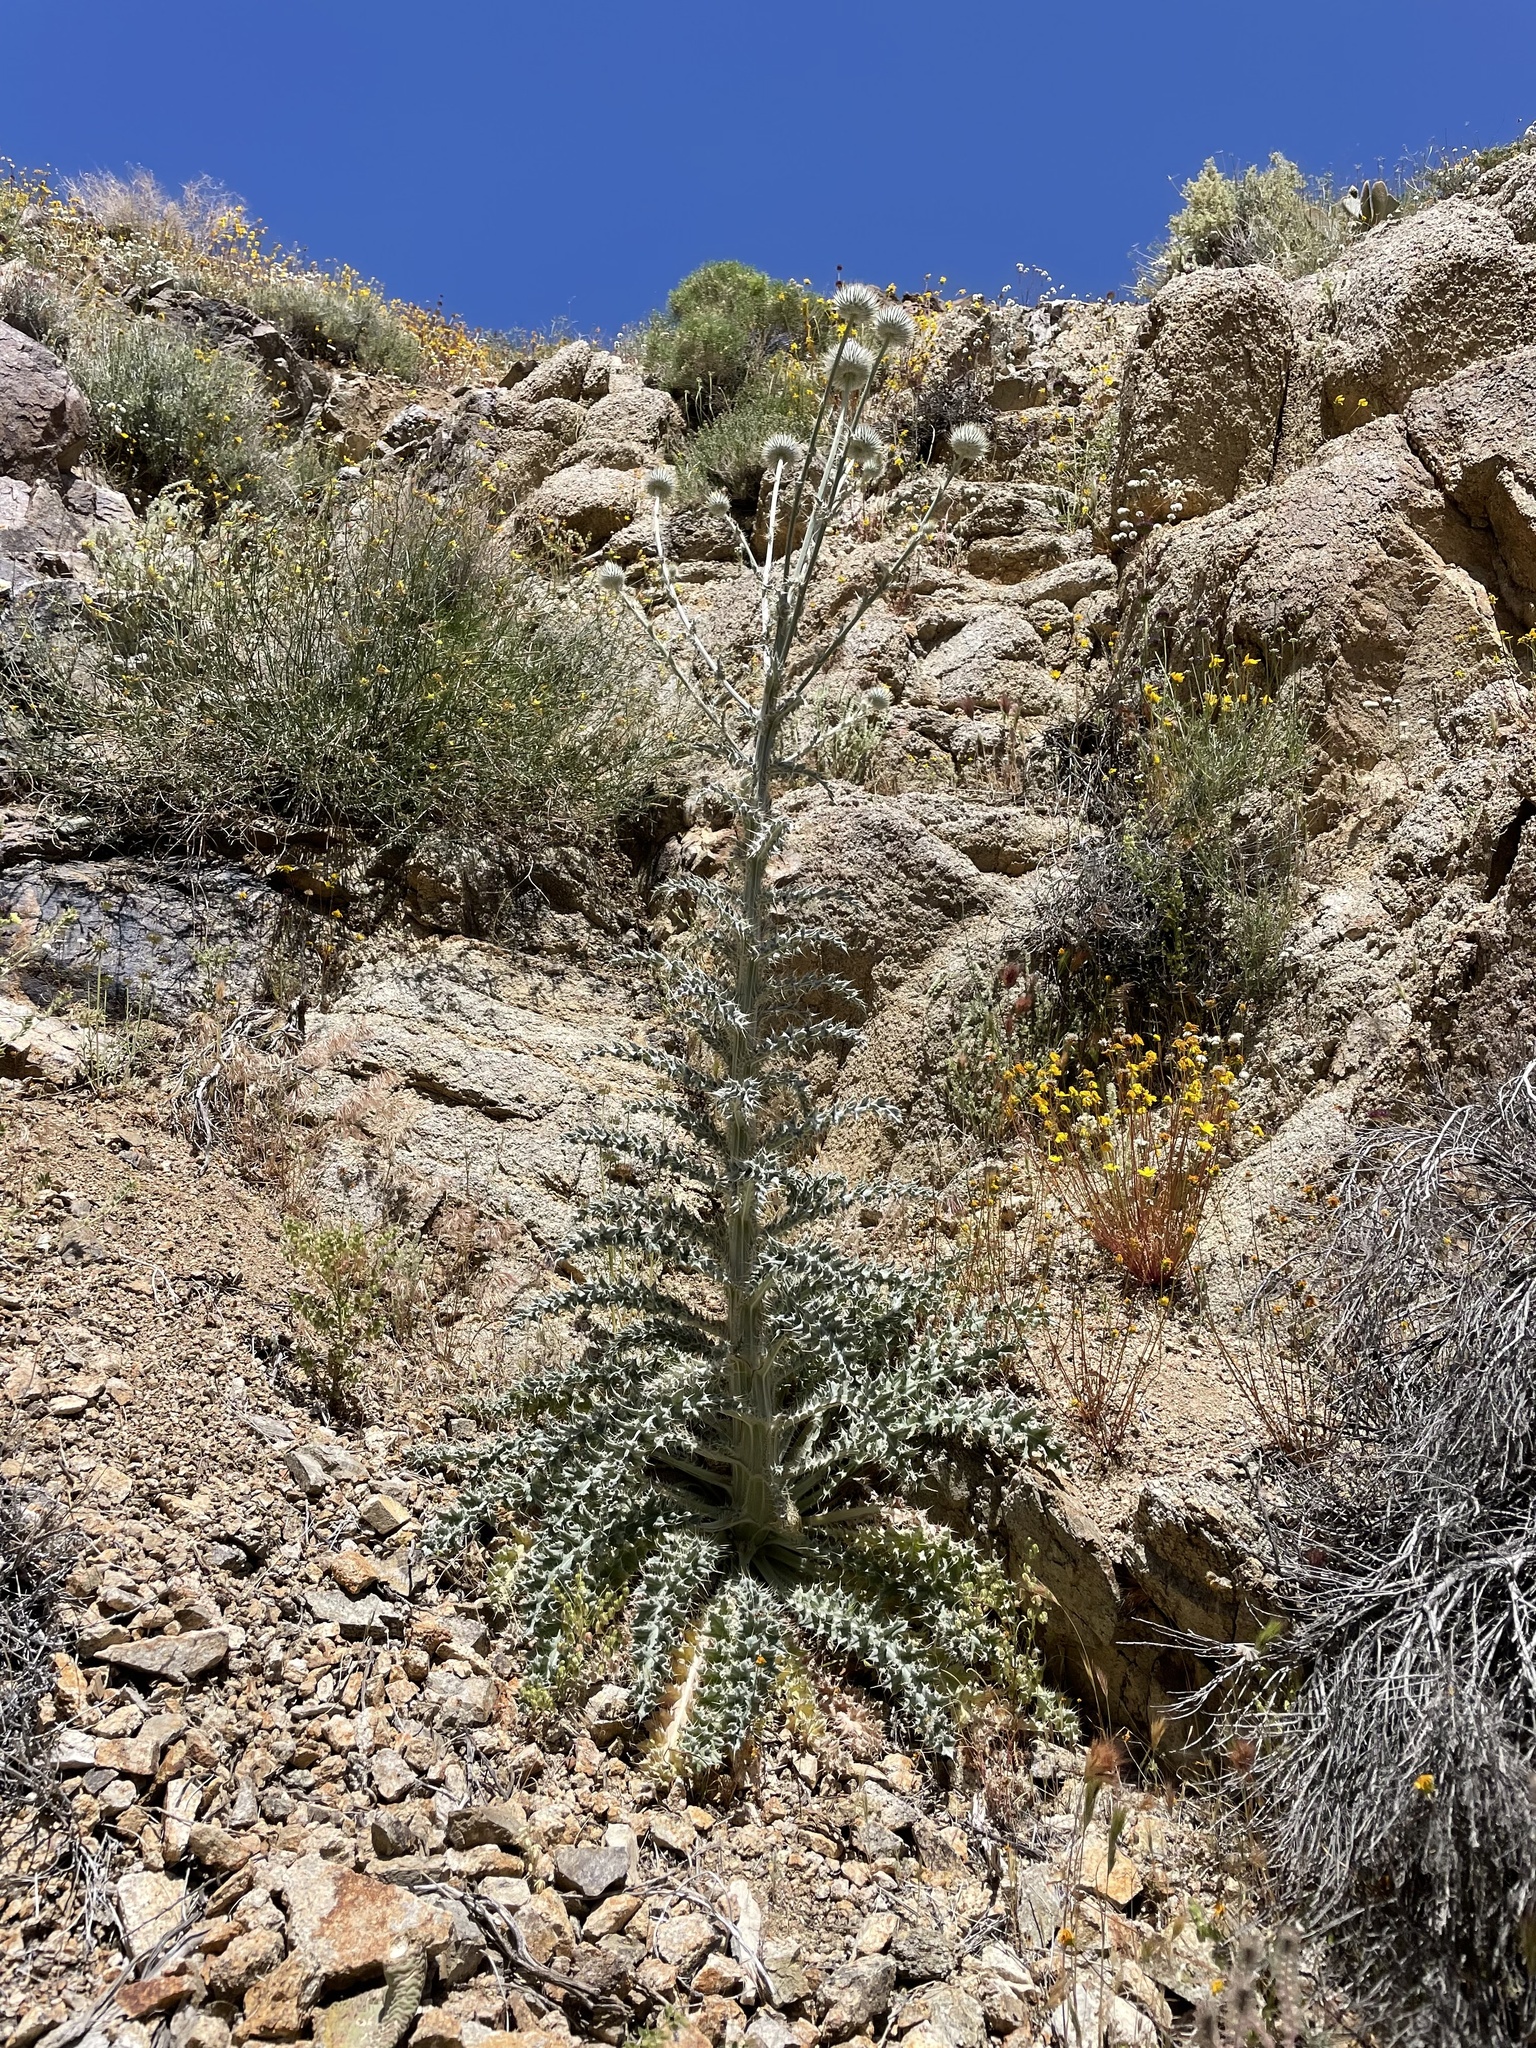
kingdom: Plantae
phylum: Tracheophyta
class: Magnoliopsida
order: Asterales
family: Asteraceae
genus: Cirsium
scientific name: Cirsium occidentale
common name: Western thistle
